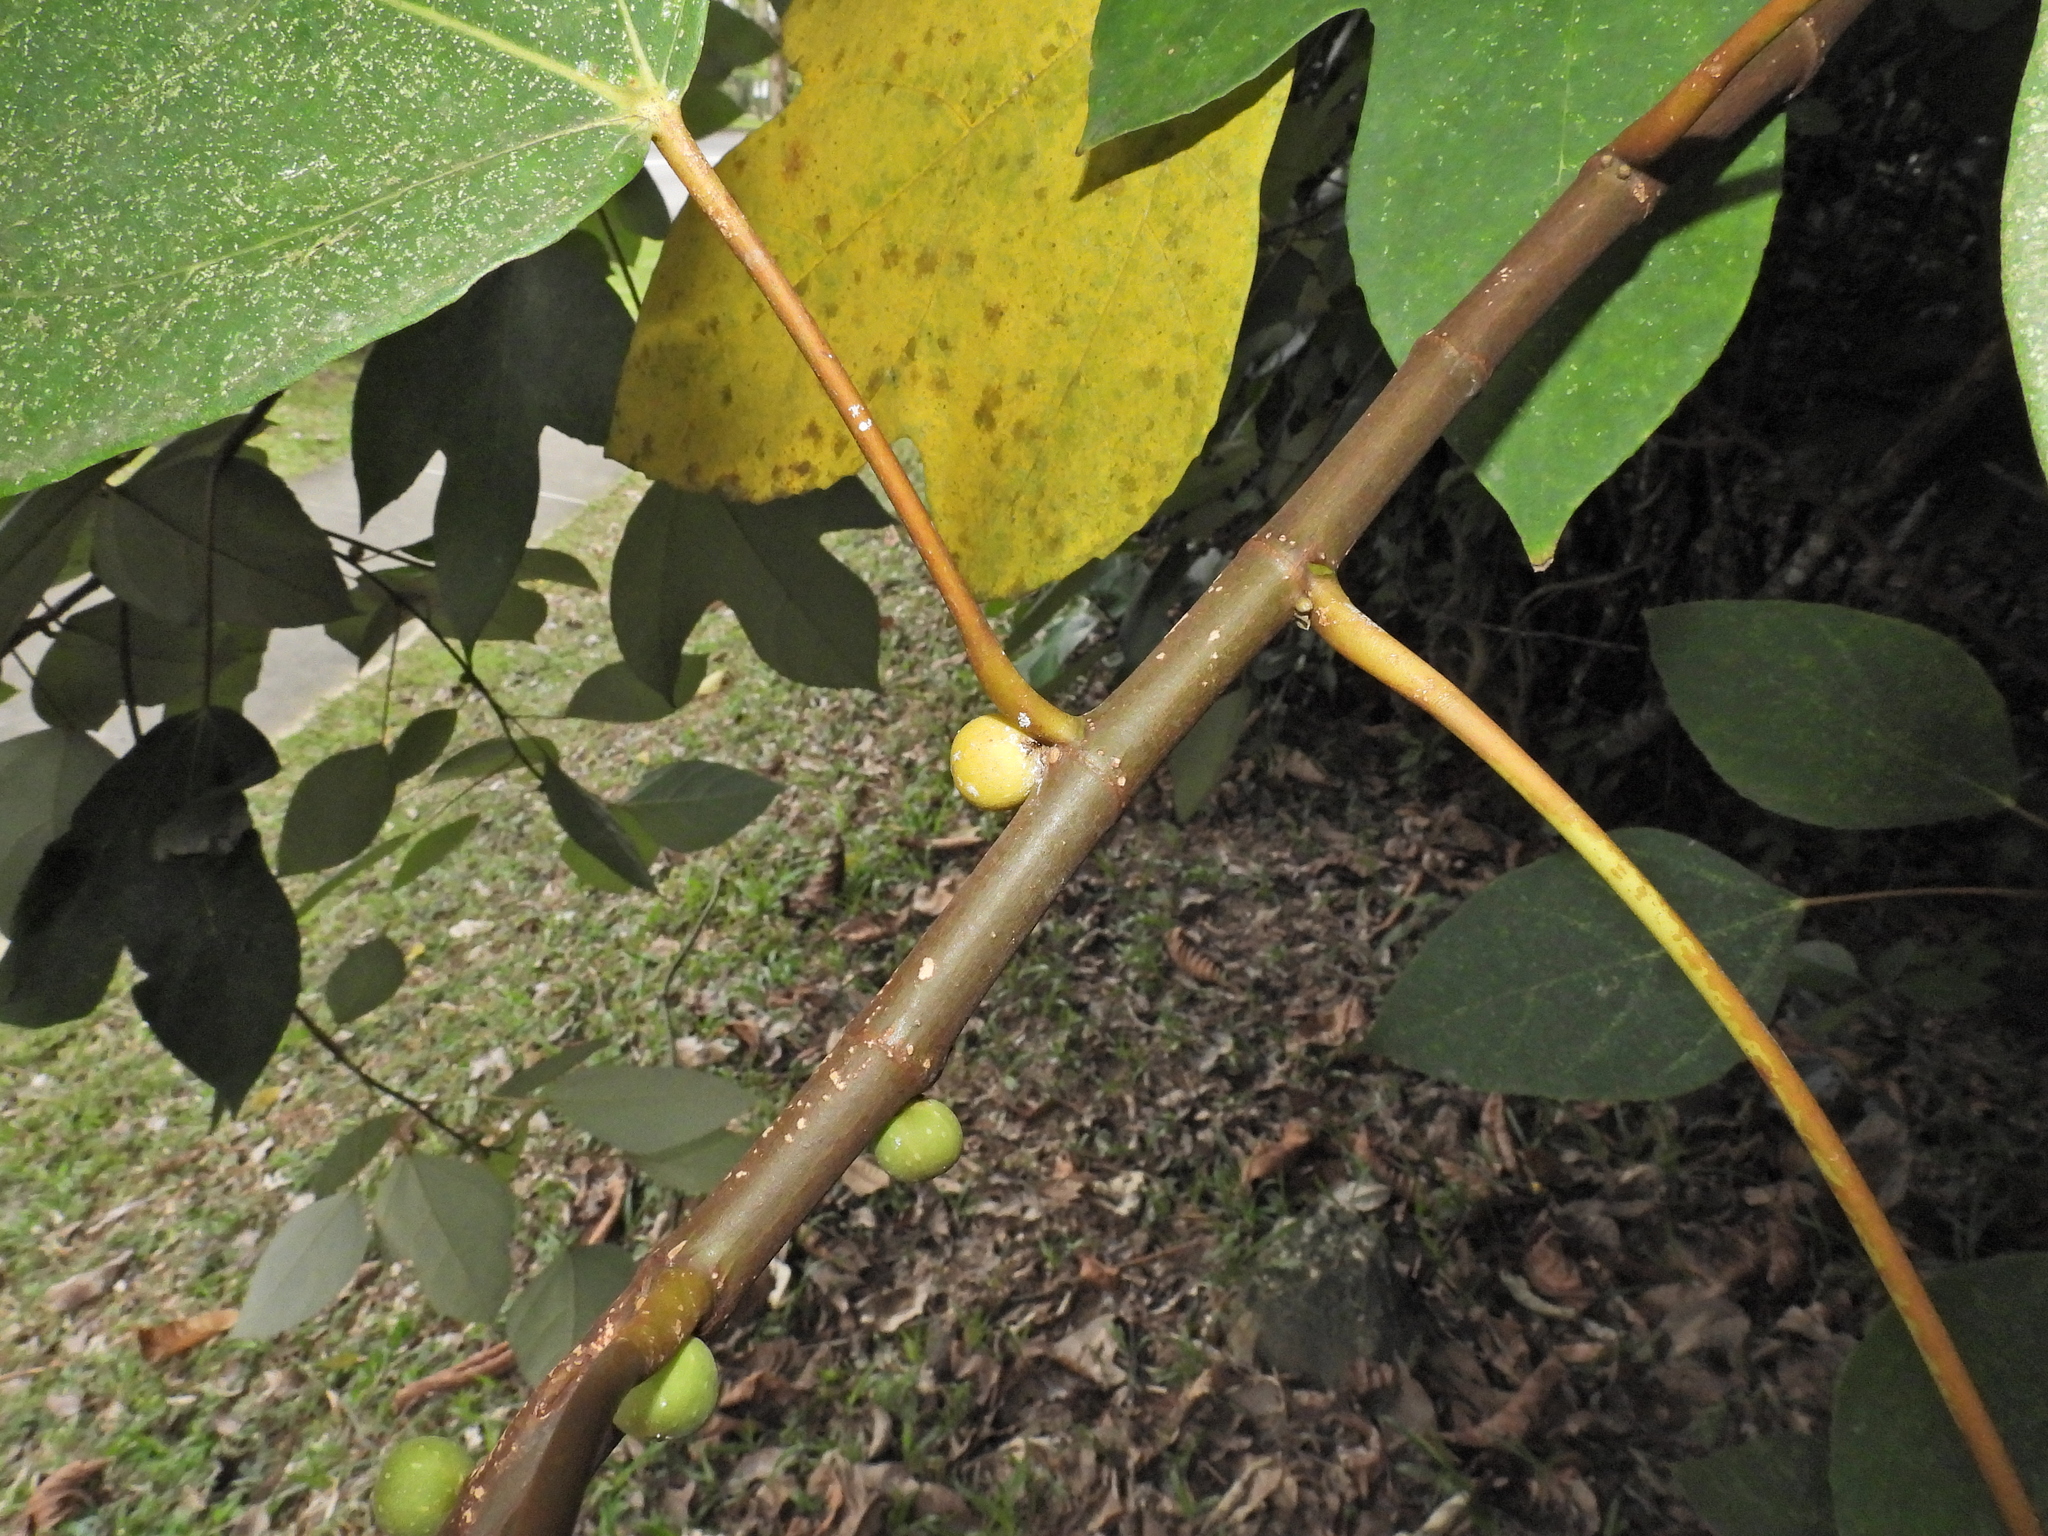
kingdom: Plantae
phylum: Tracheophyta
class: Magnoliopsida
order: Rosales
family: Moraceae
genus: Ficus
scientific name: Ficus grossularioides
